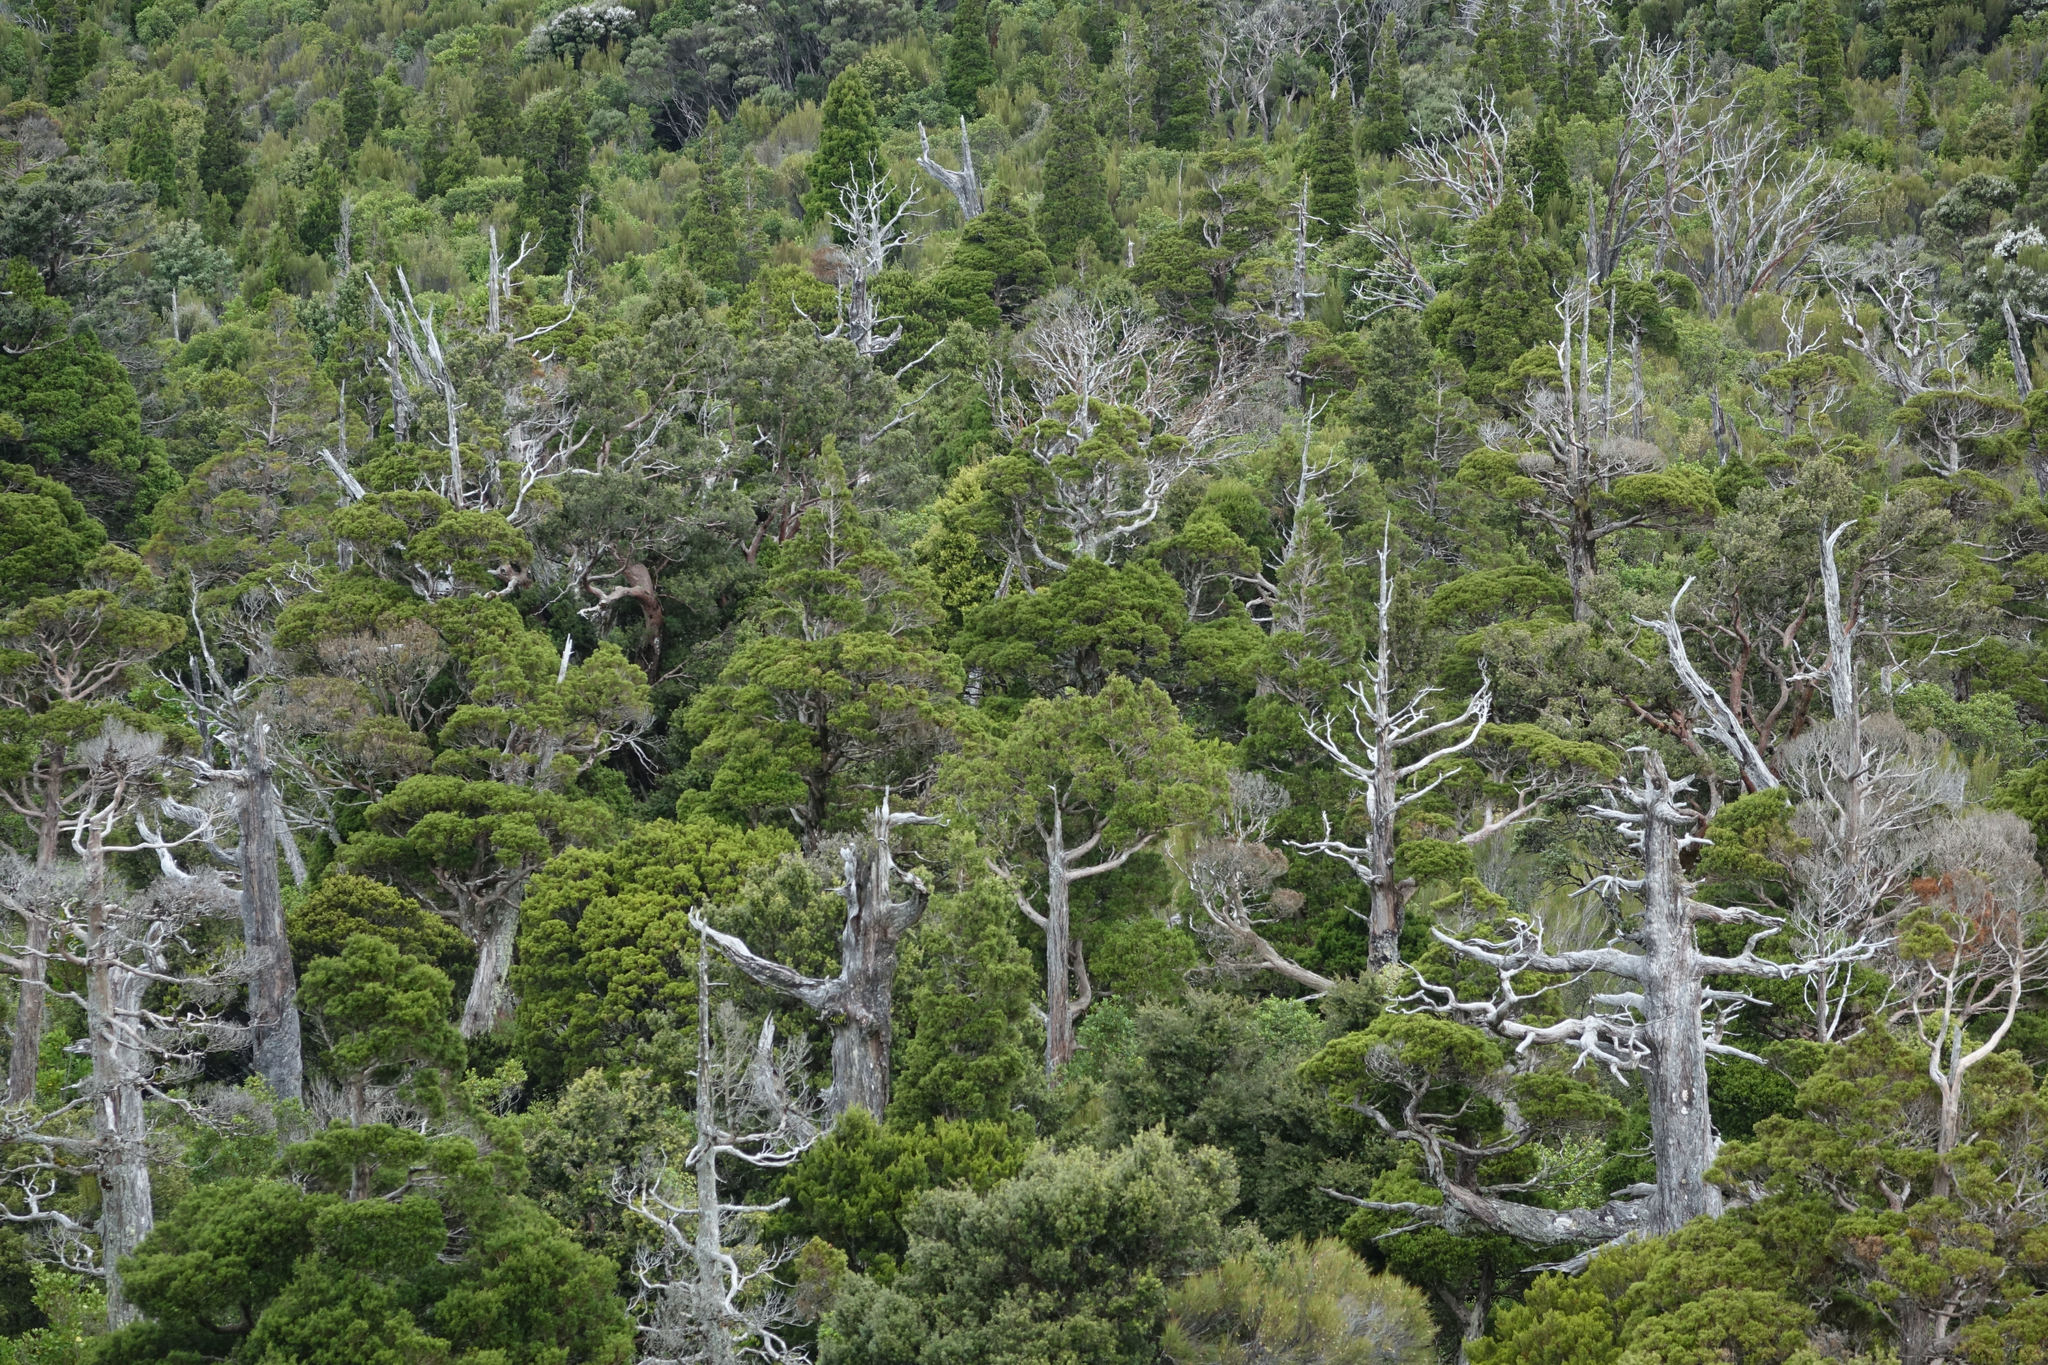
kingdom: Plantae
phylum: Tracheophyta
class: Pinopsida
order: Pinales
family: Cupressaceae
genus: Libocedrus
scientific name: Libocedrus bidwillii
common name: Cedar
